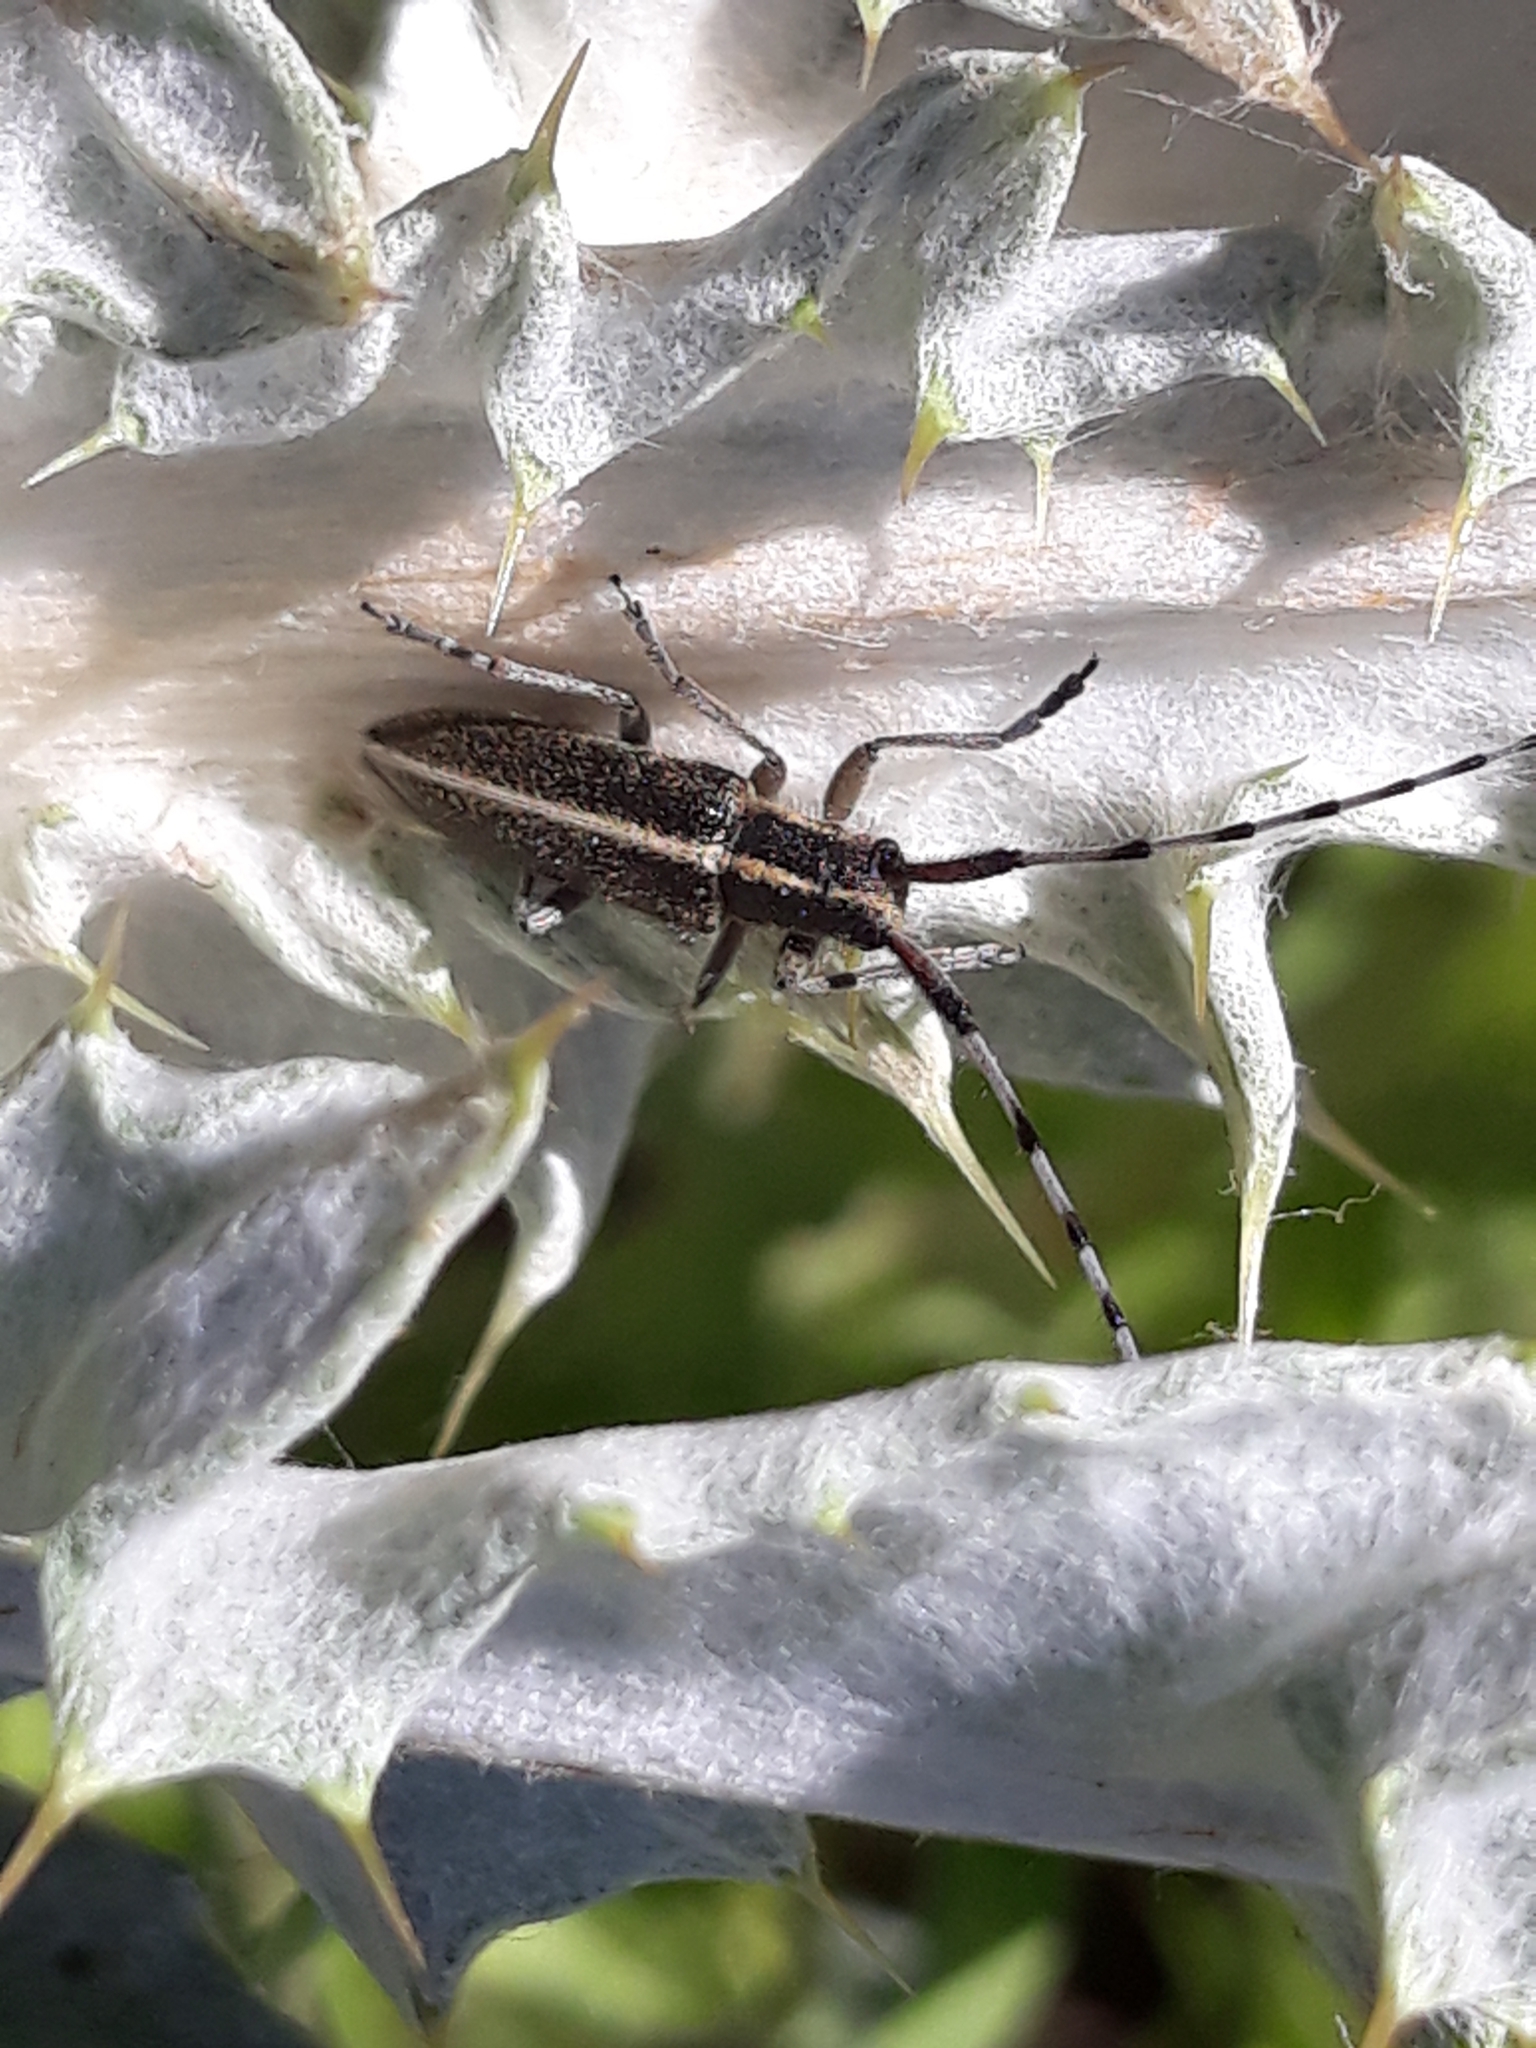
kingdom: Animalia
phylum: Arthropoda
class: Insecta
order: Coleoptera
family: Cerambycidae
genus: Agapanthia
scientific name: Agapanthia suturalis
